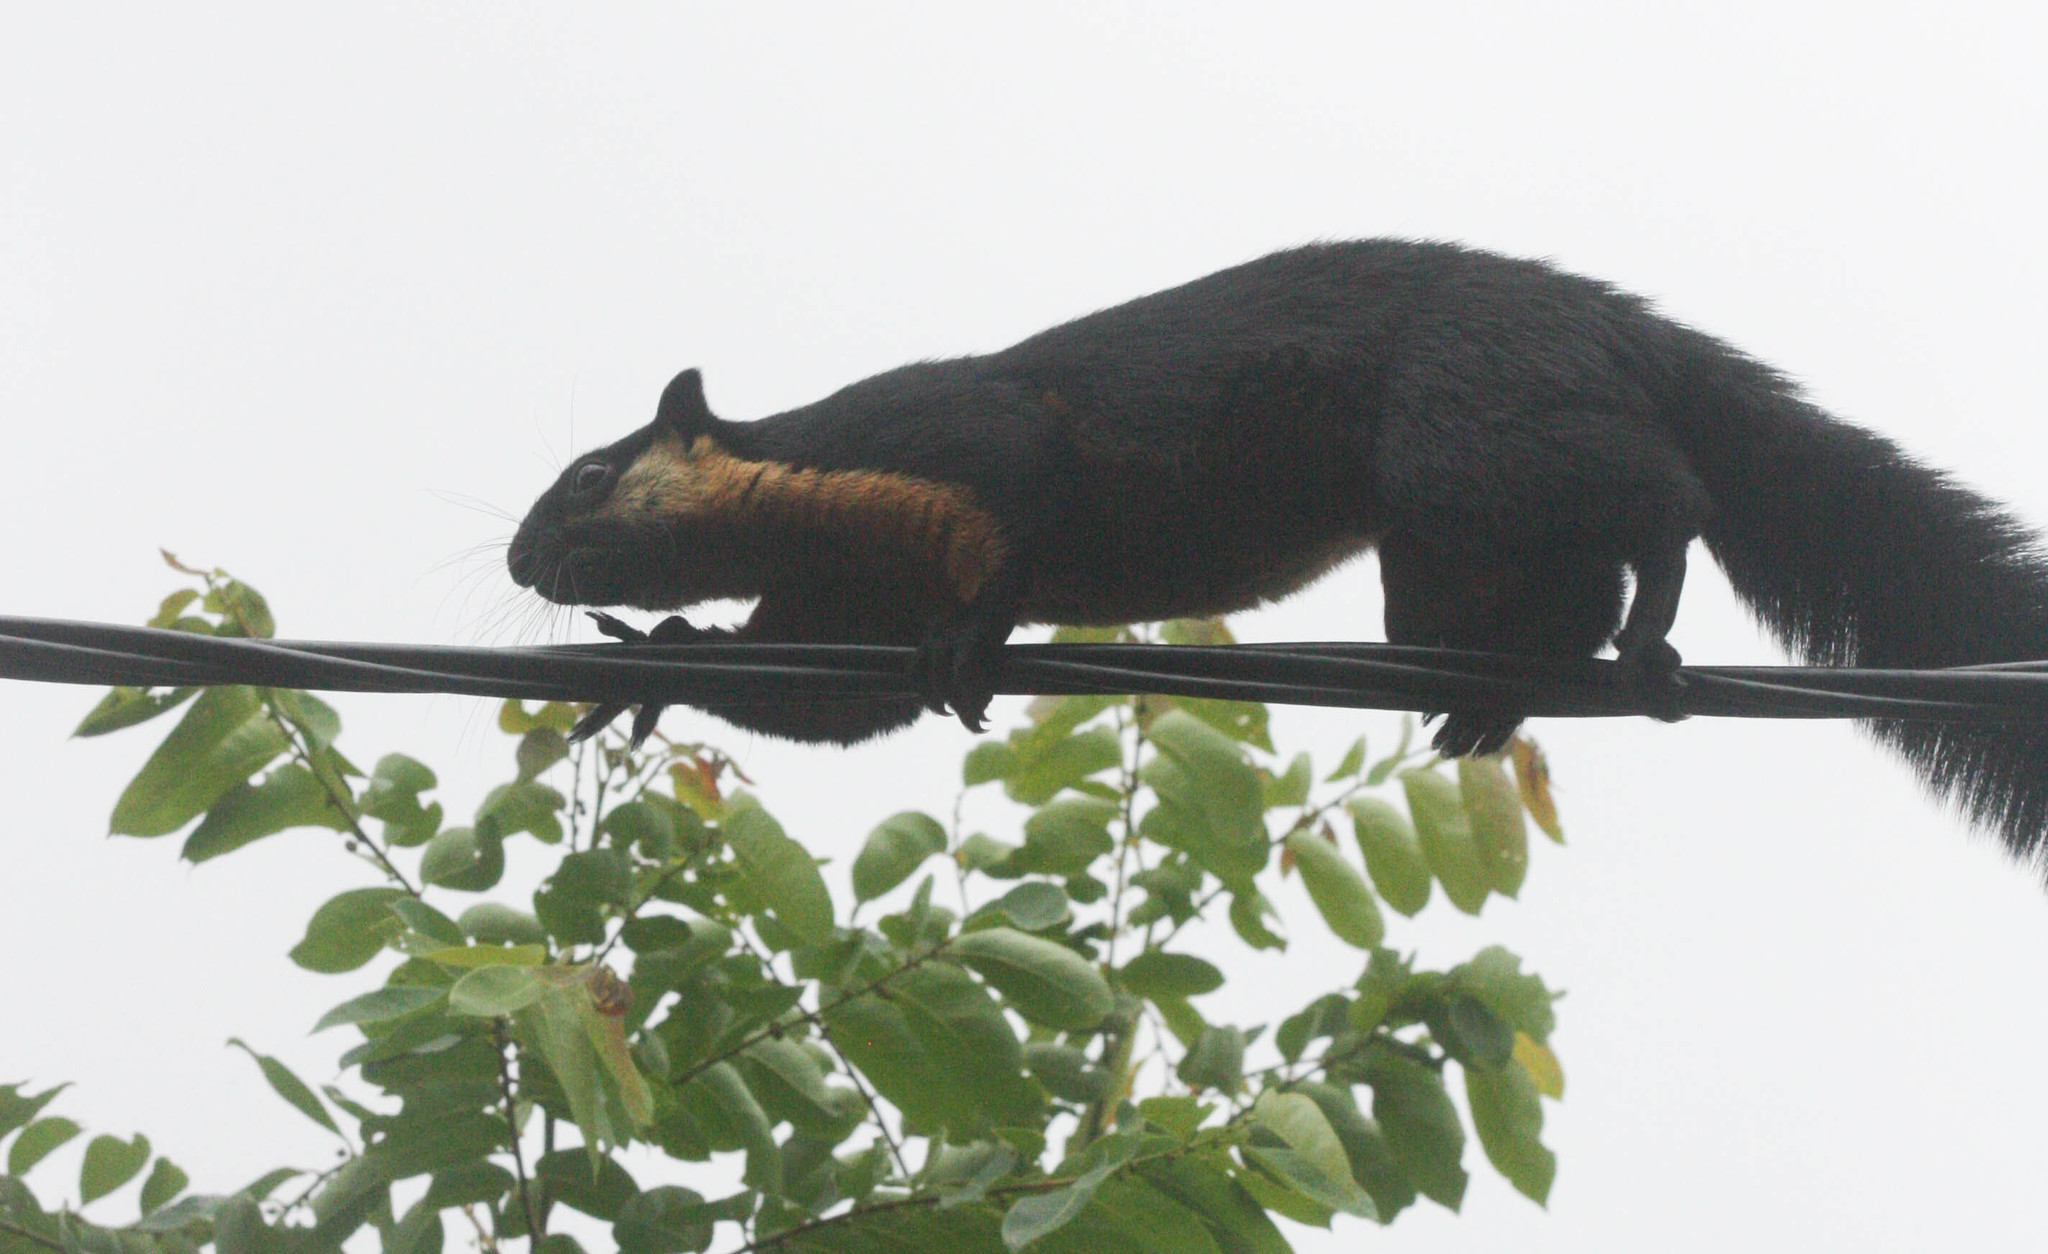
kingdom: Animalia
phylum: Chordata
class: Mammalia
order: Rodentia
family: Sciuridae
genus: Ratufa
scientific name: Ratufa bicolor
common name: Black giant squirrel
